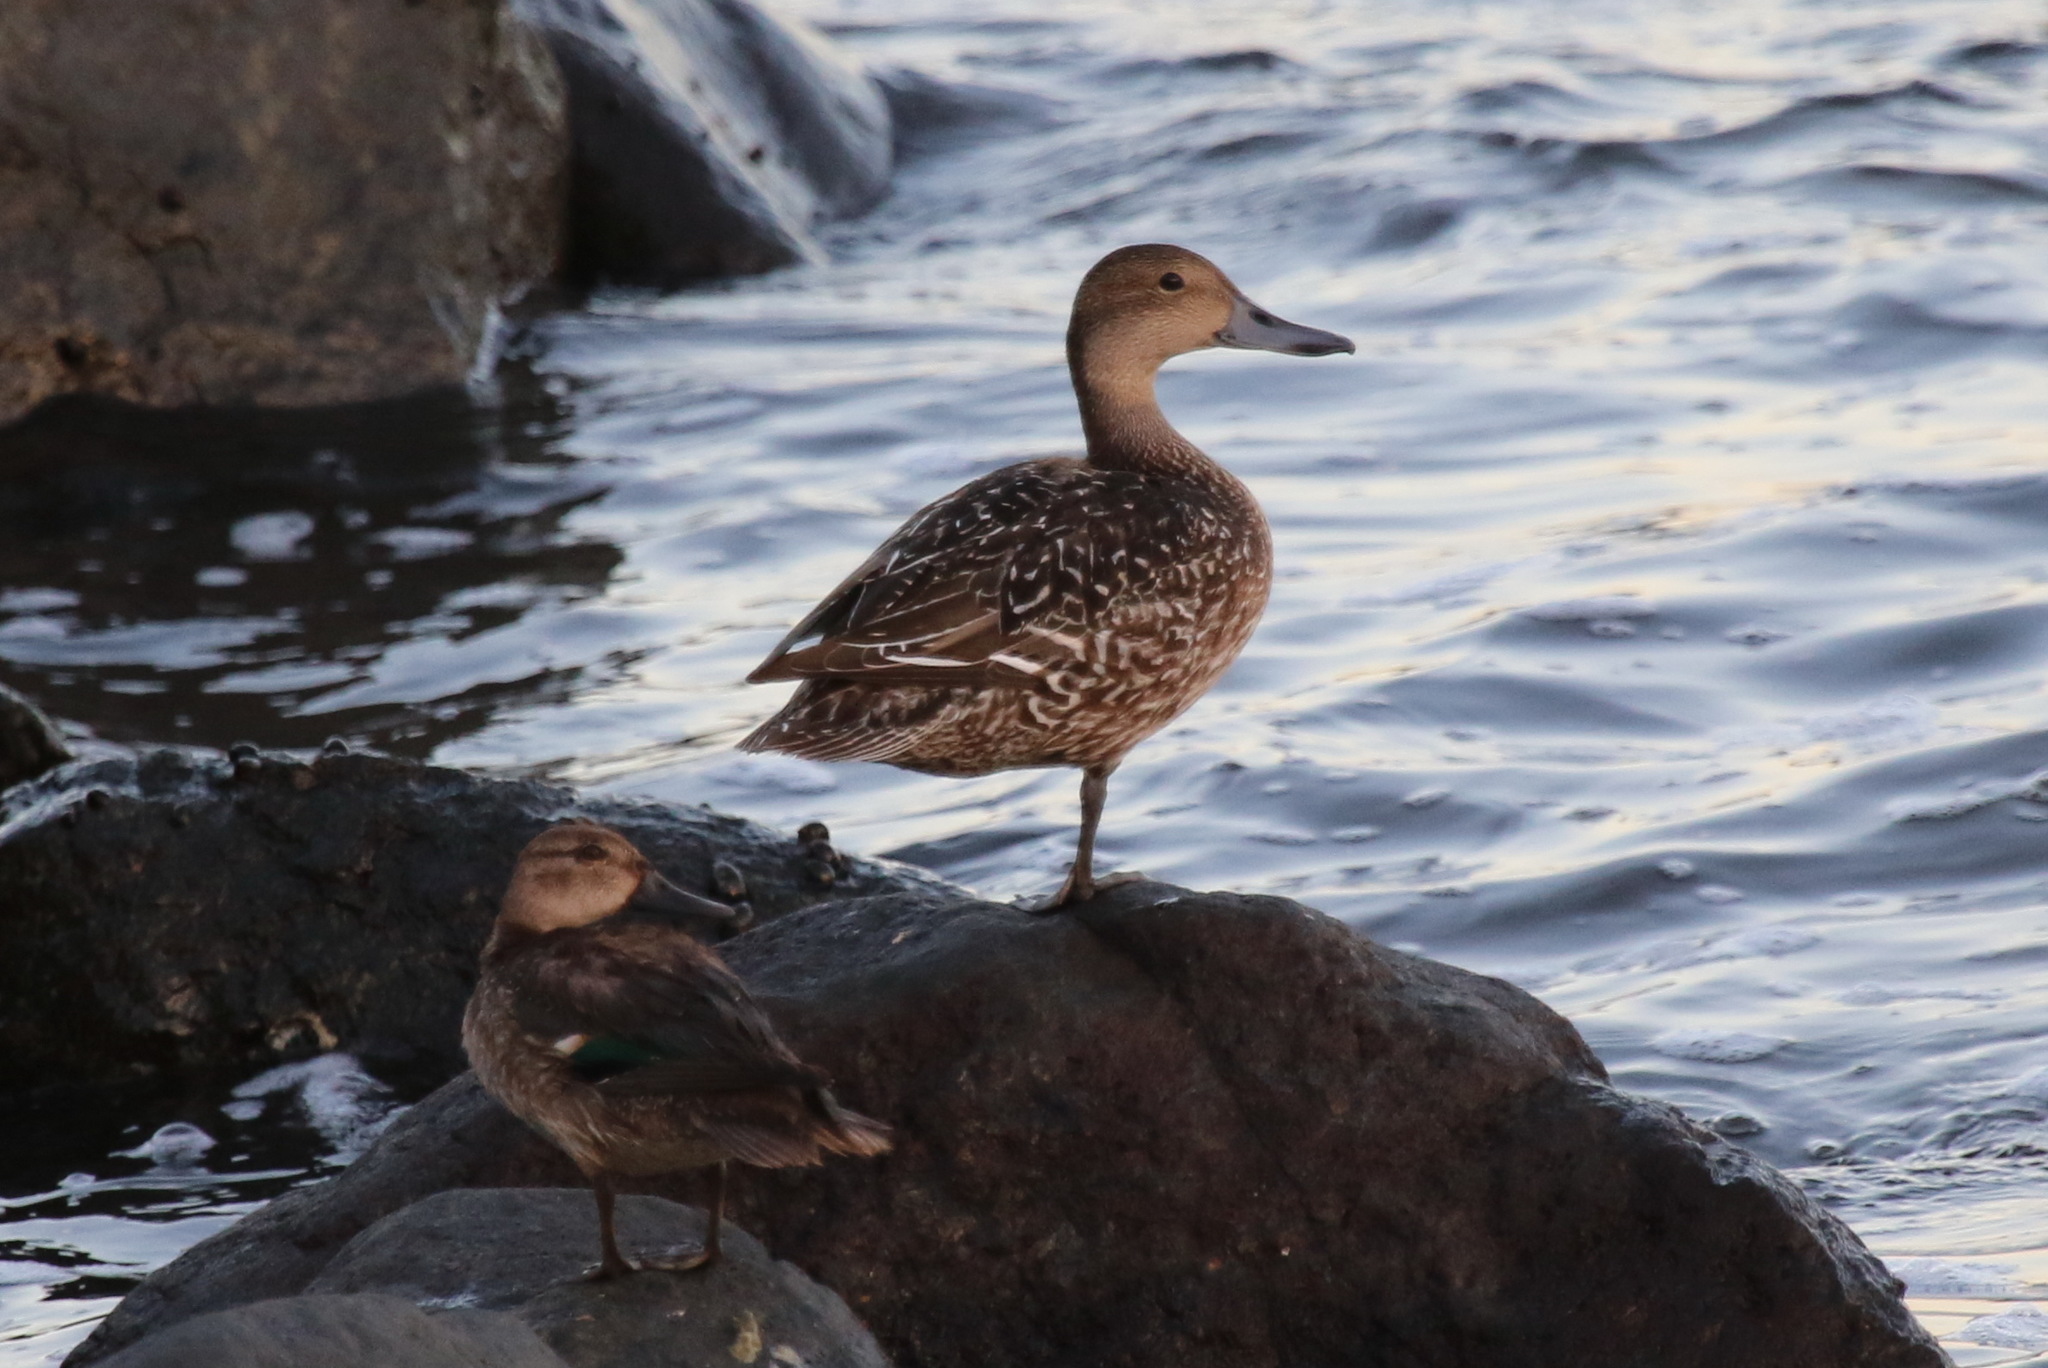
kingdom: Animalia
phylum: Chordata
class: Aves
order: Anseriformes
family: Anatidae
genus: Anas
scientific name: Anas acuta
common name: Northern pintail
